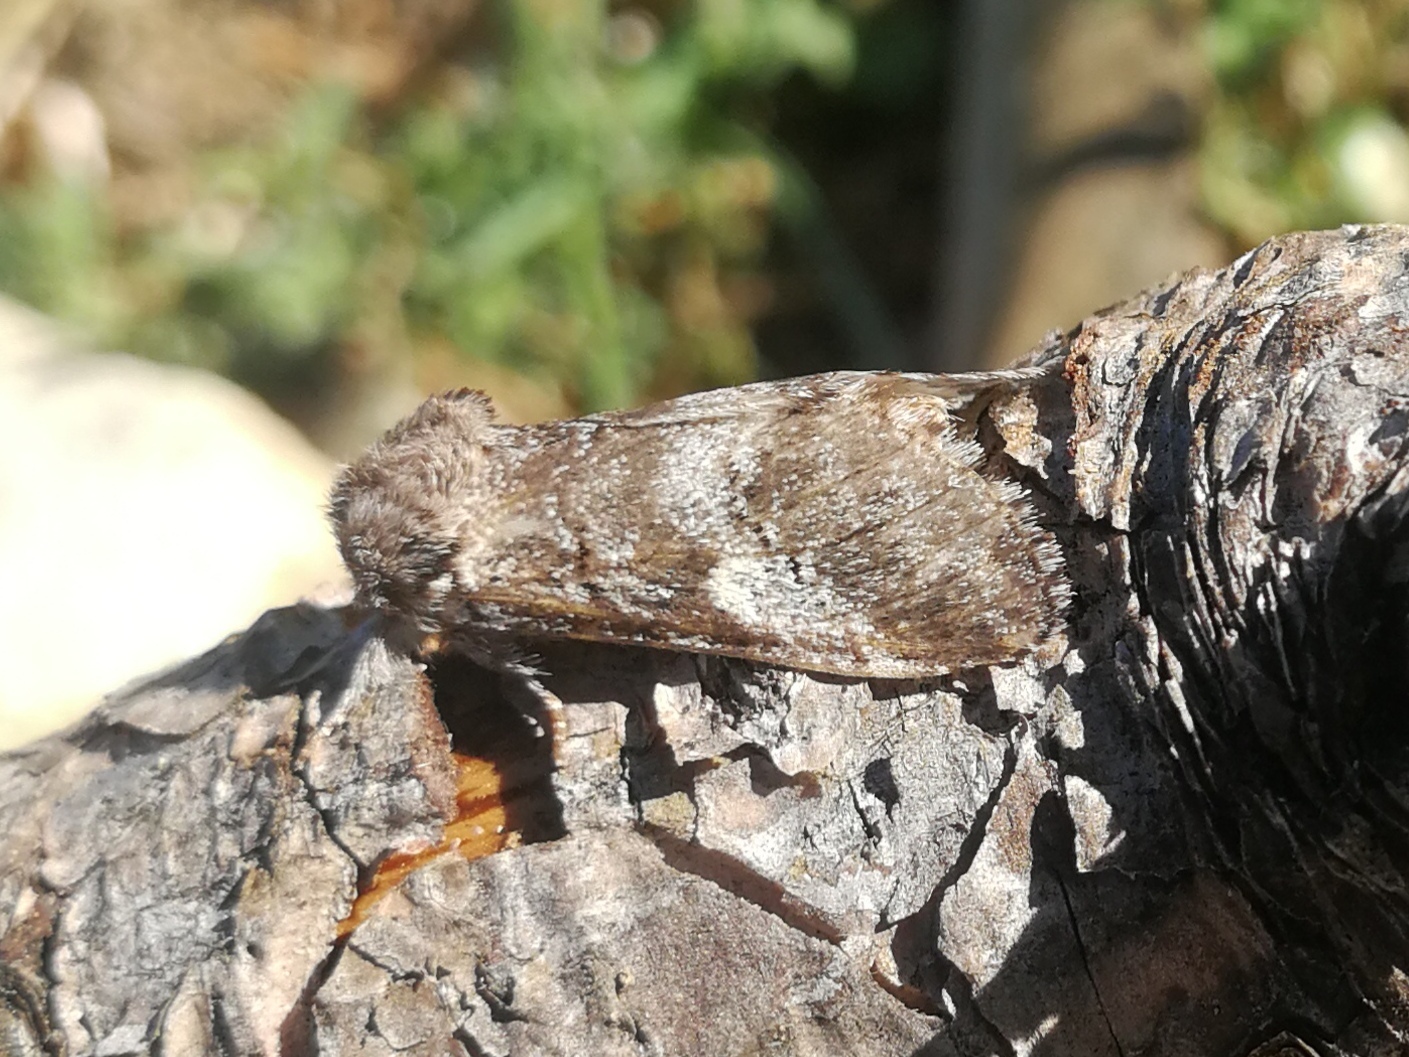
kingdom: Animalia
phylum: Arthropoda
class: Insecta
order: Lepidoptera
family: Notodontidae
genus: Drymonia
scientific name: Drymonia querna
